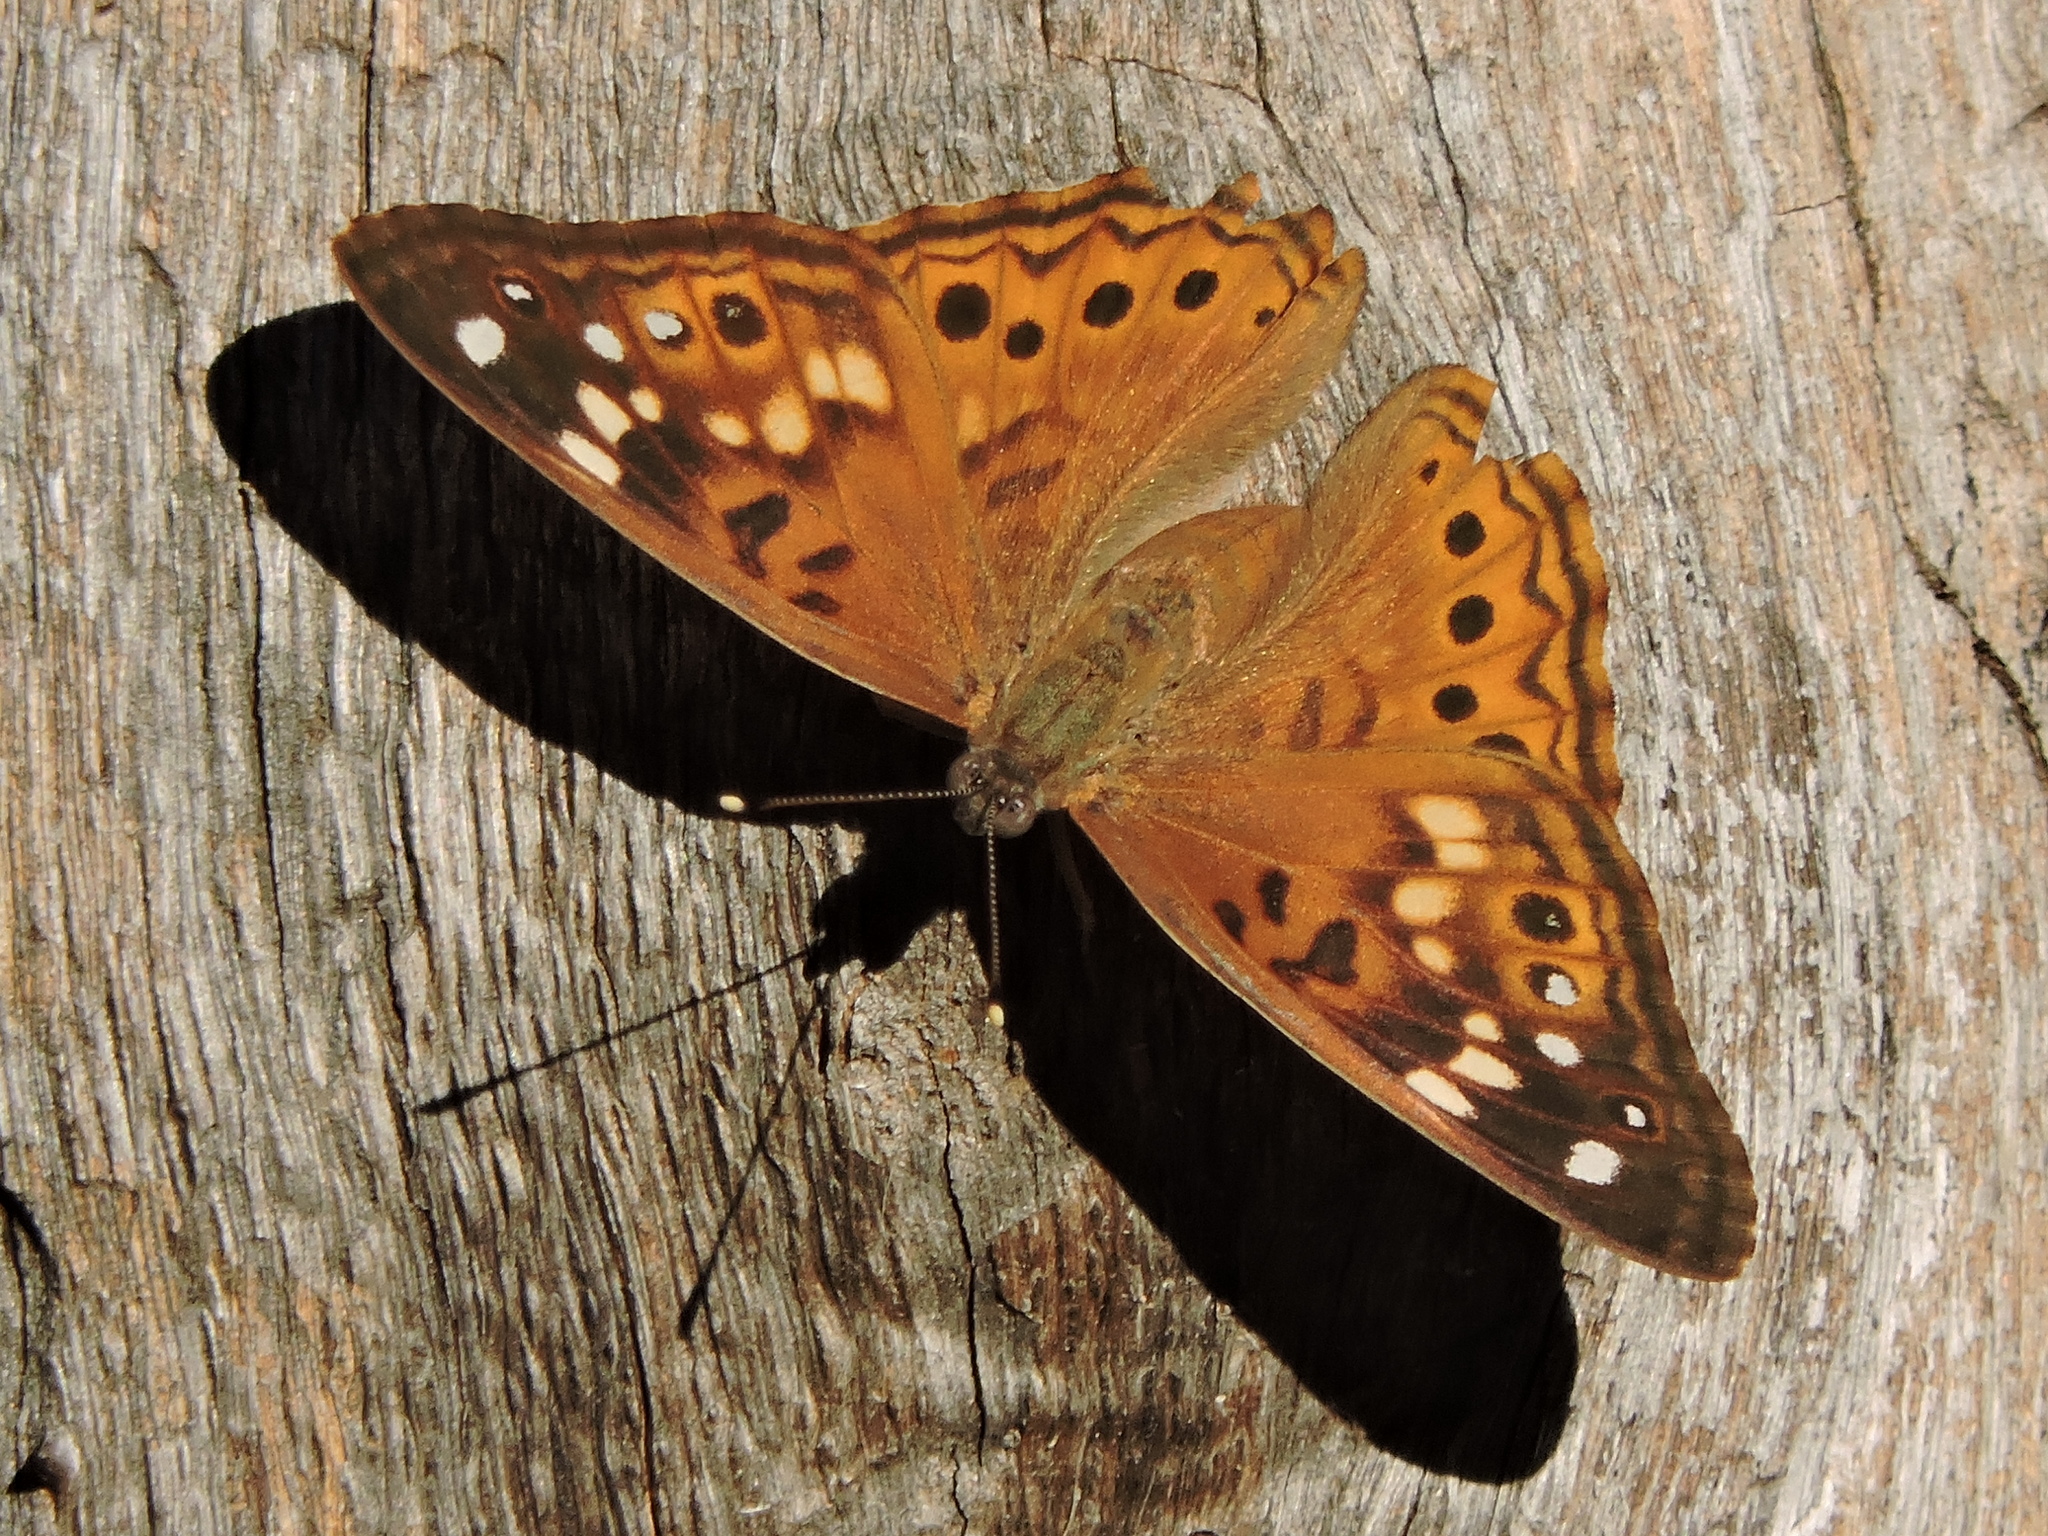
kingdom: Animalia
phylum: Arthropoda
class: Insecta
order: Lepidoptera
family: Nymphalidae
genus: Asterocampa
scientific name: Asterocampa celtis
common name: Hackberry emperor
